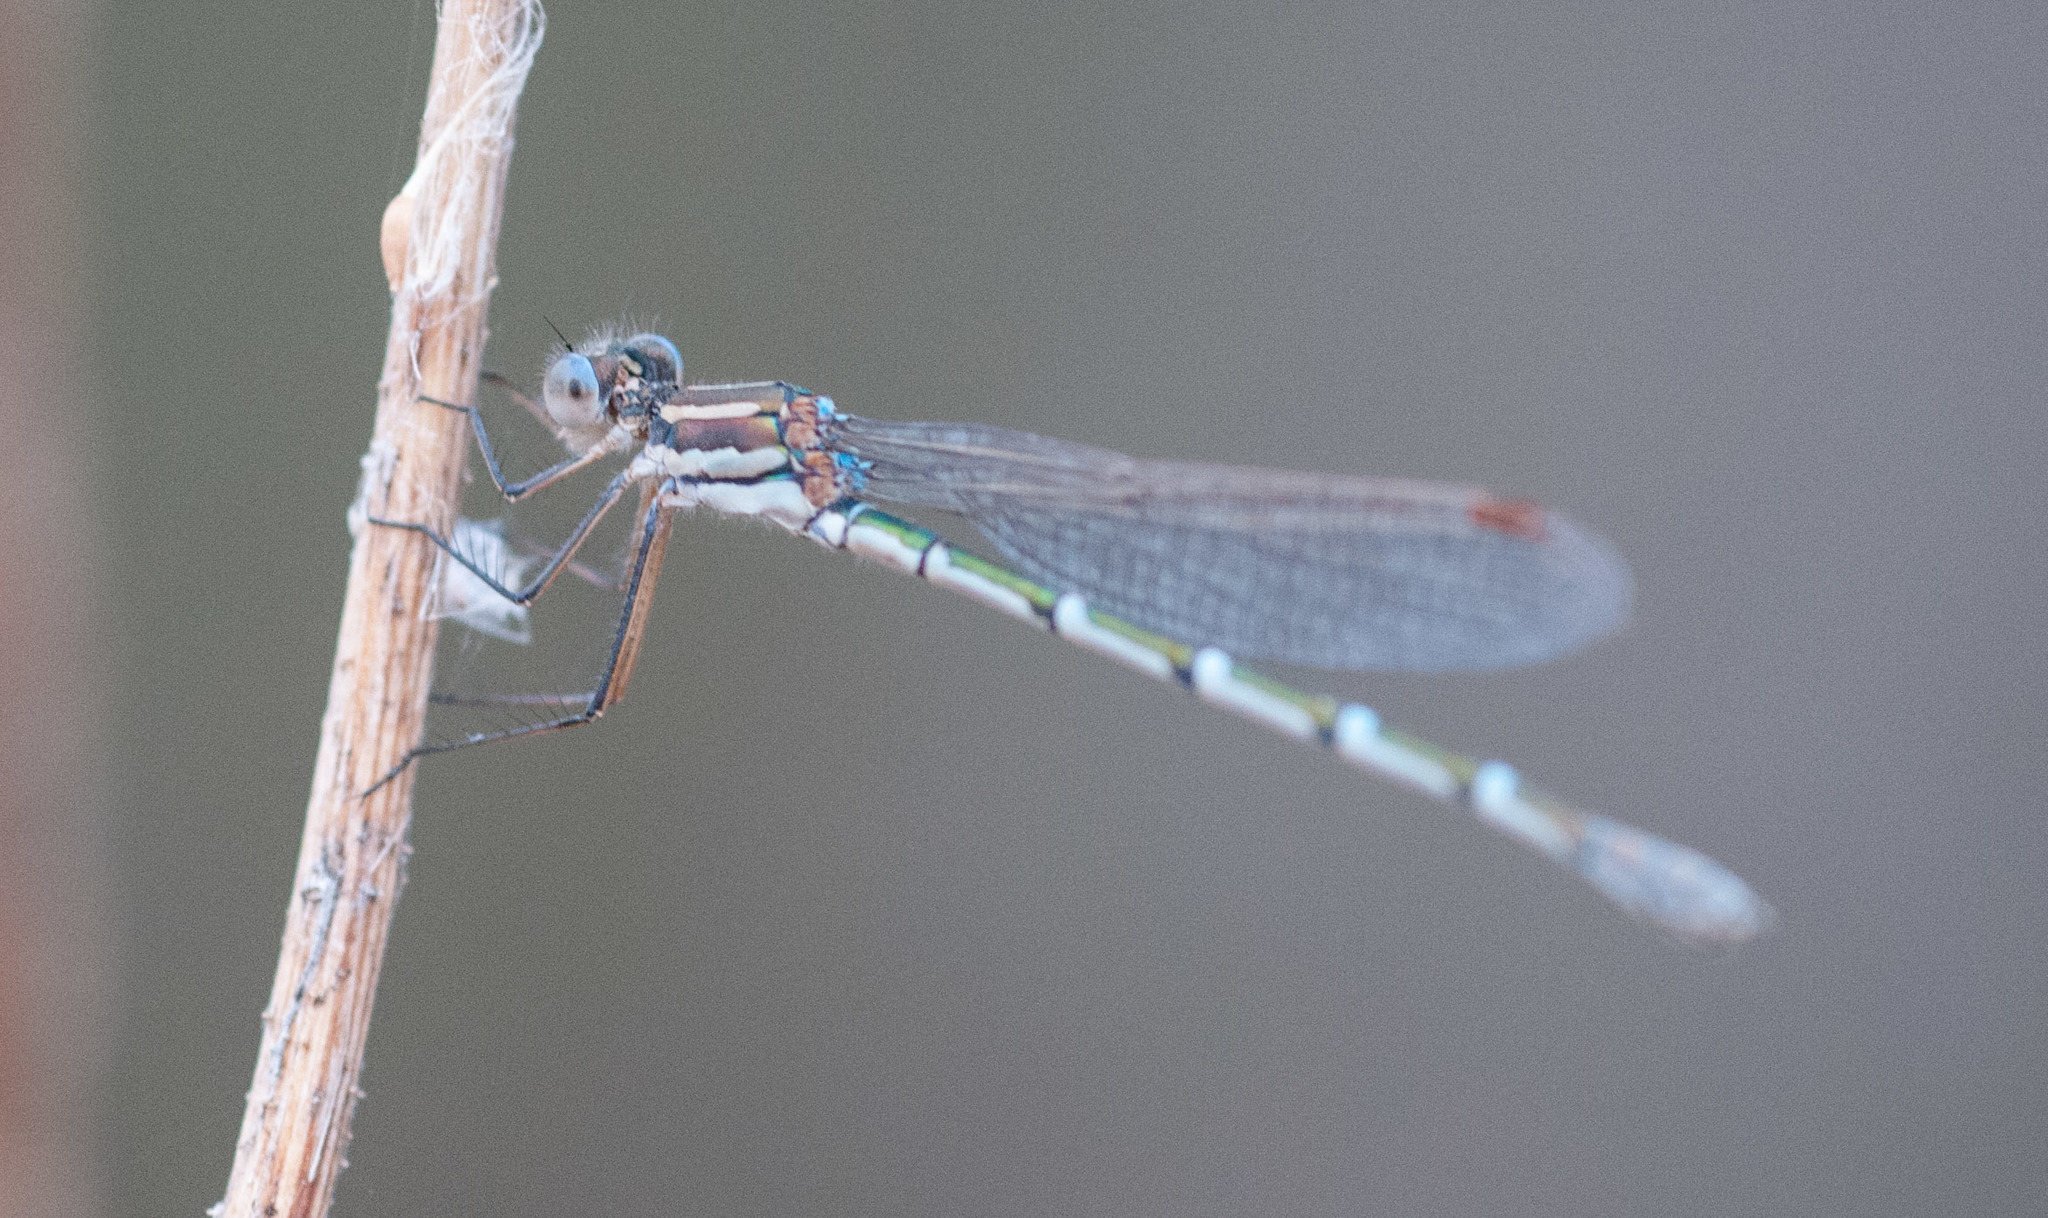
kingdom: Animalia
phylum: Arthropoda
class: Insecta
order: Odonata
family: Lestidae
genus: Austrolestes
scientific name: Austrolestes annulosus
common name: Blue ringtail
